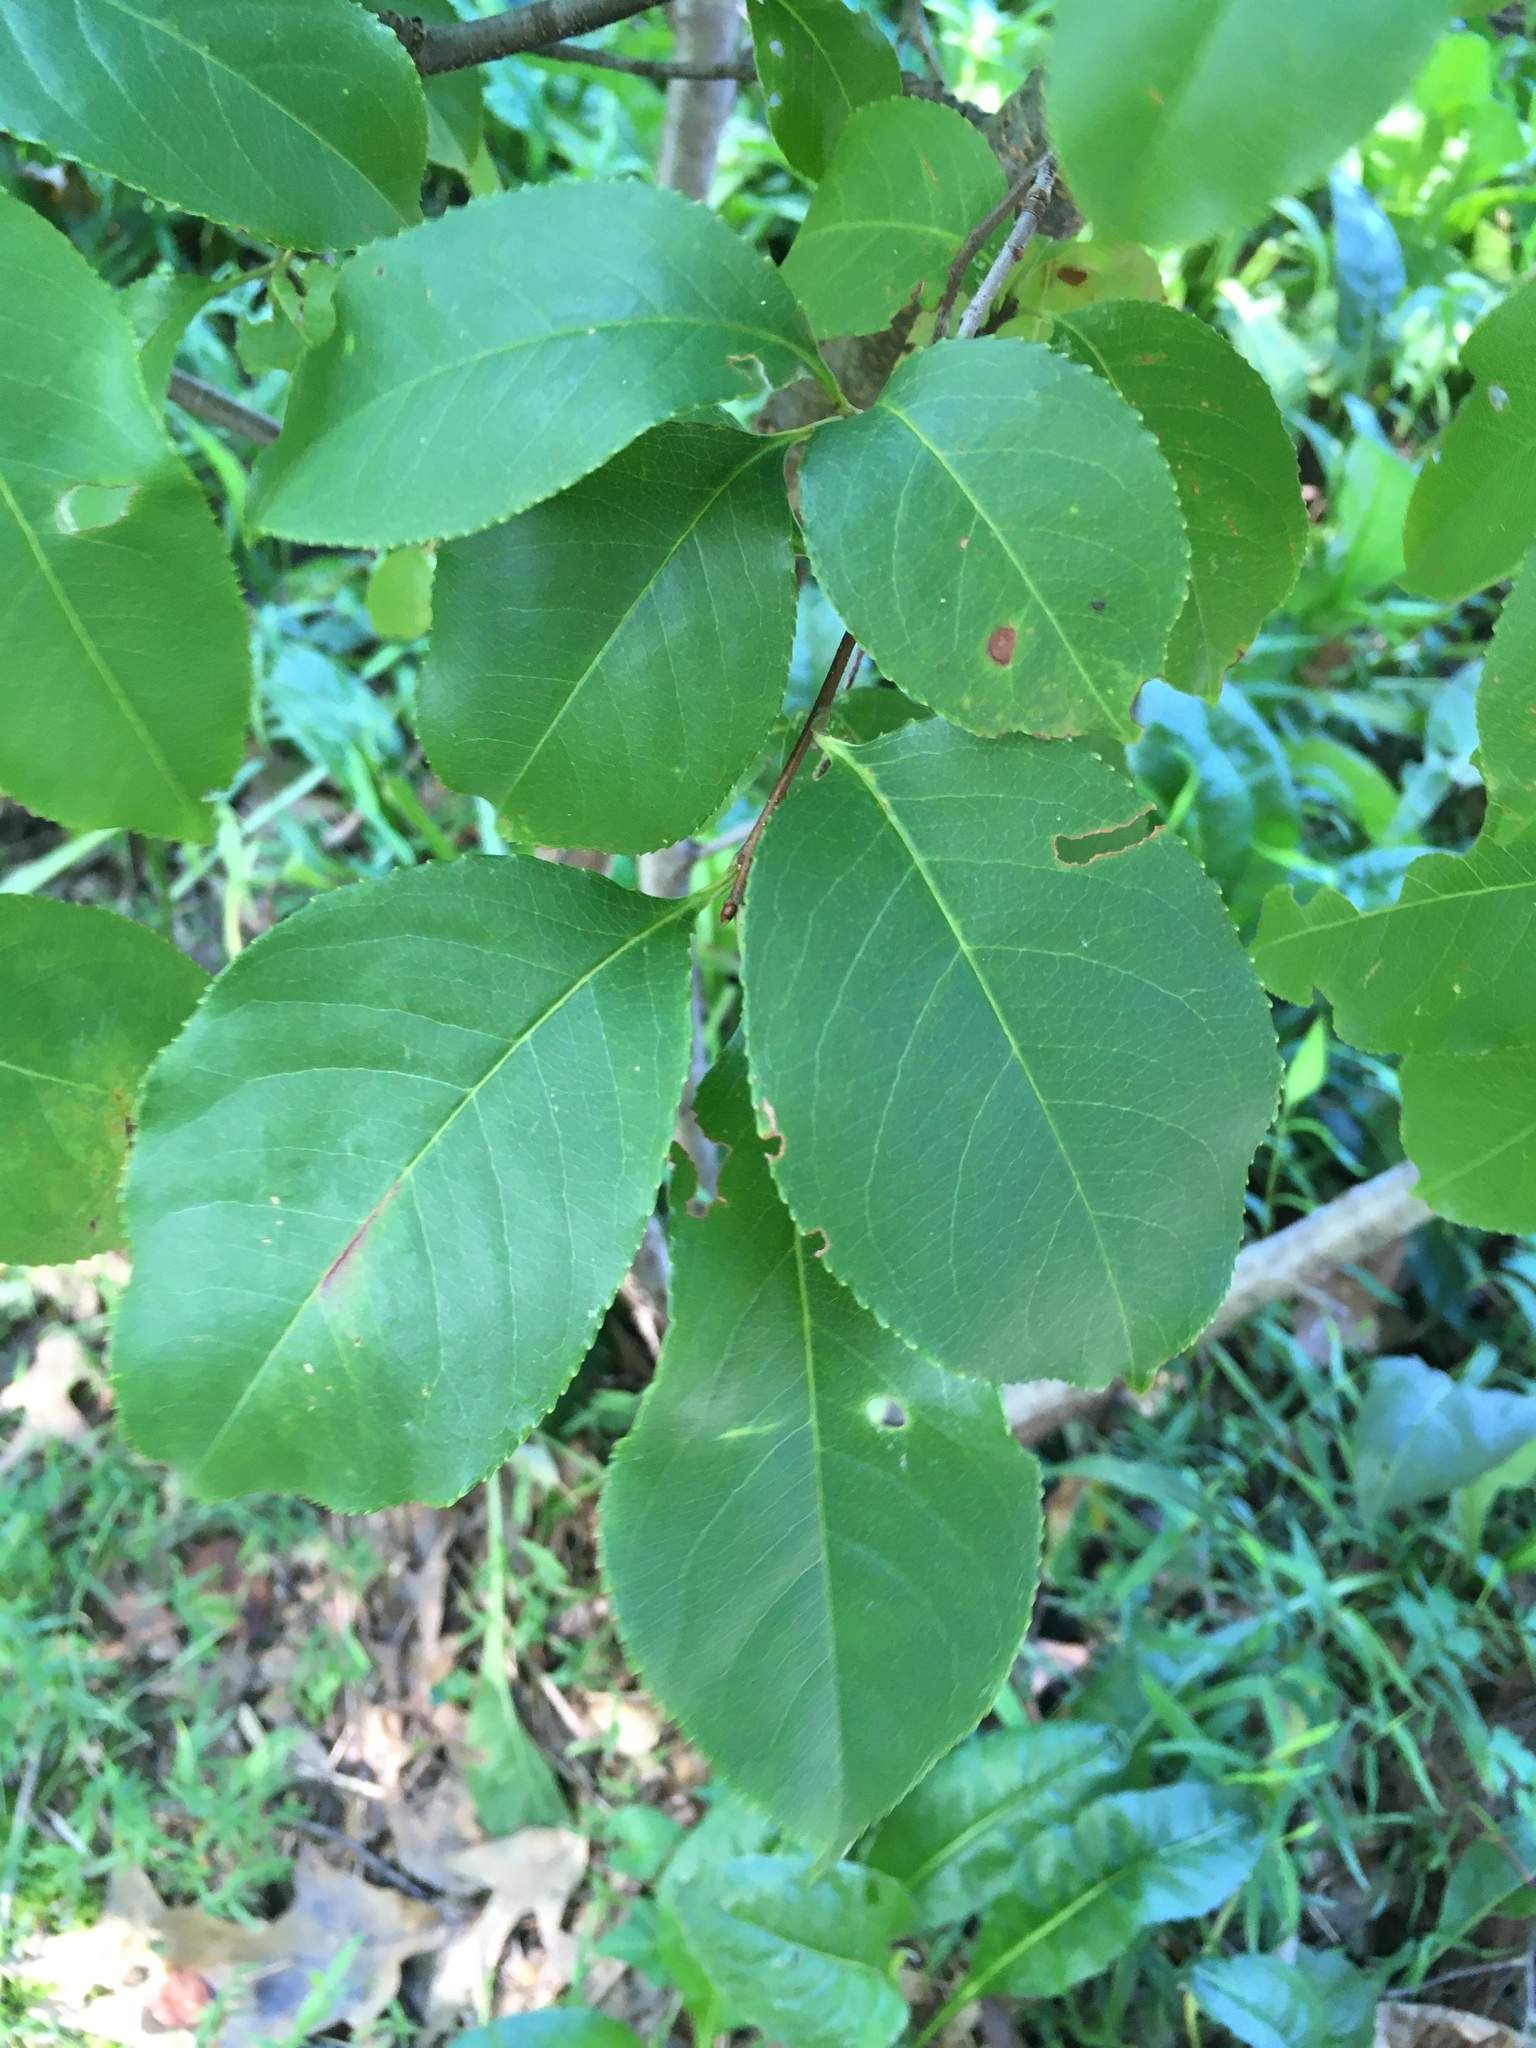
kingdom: Plantae
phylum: Tracheophyta
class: Magnoliopsida
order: Rosales
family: Rosaceae
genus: Prunus
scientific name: Prunus serotina
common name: Black cherry
